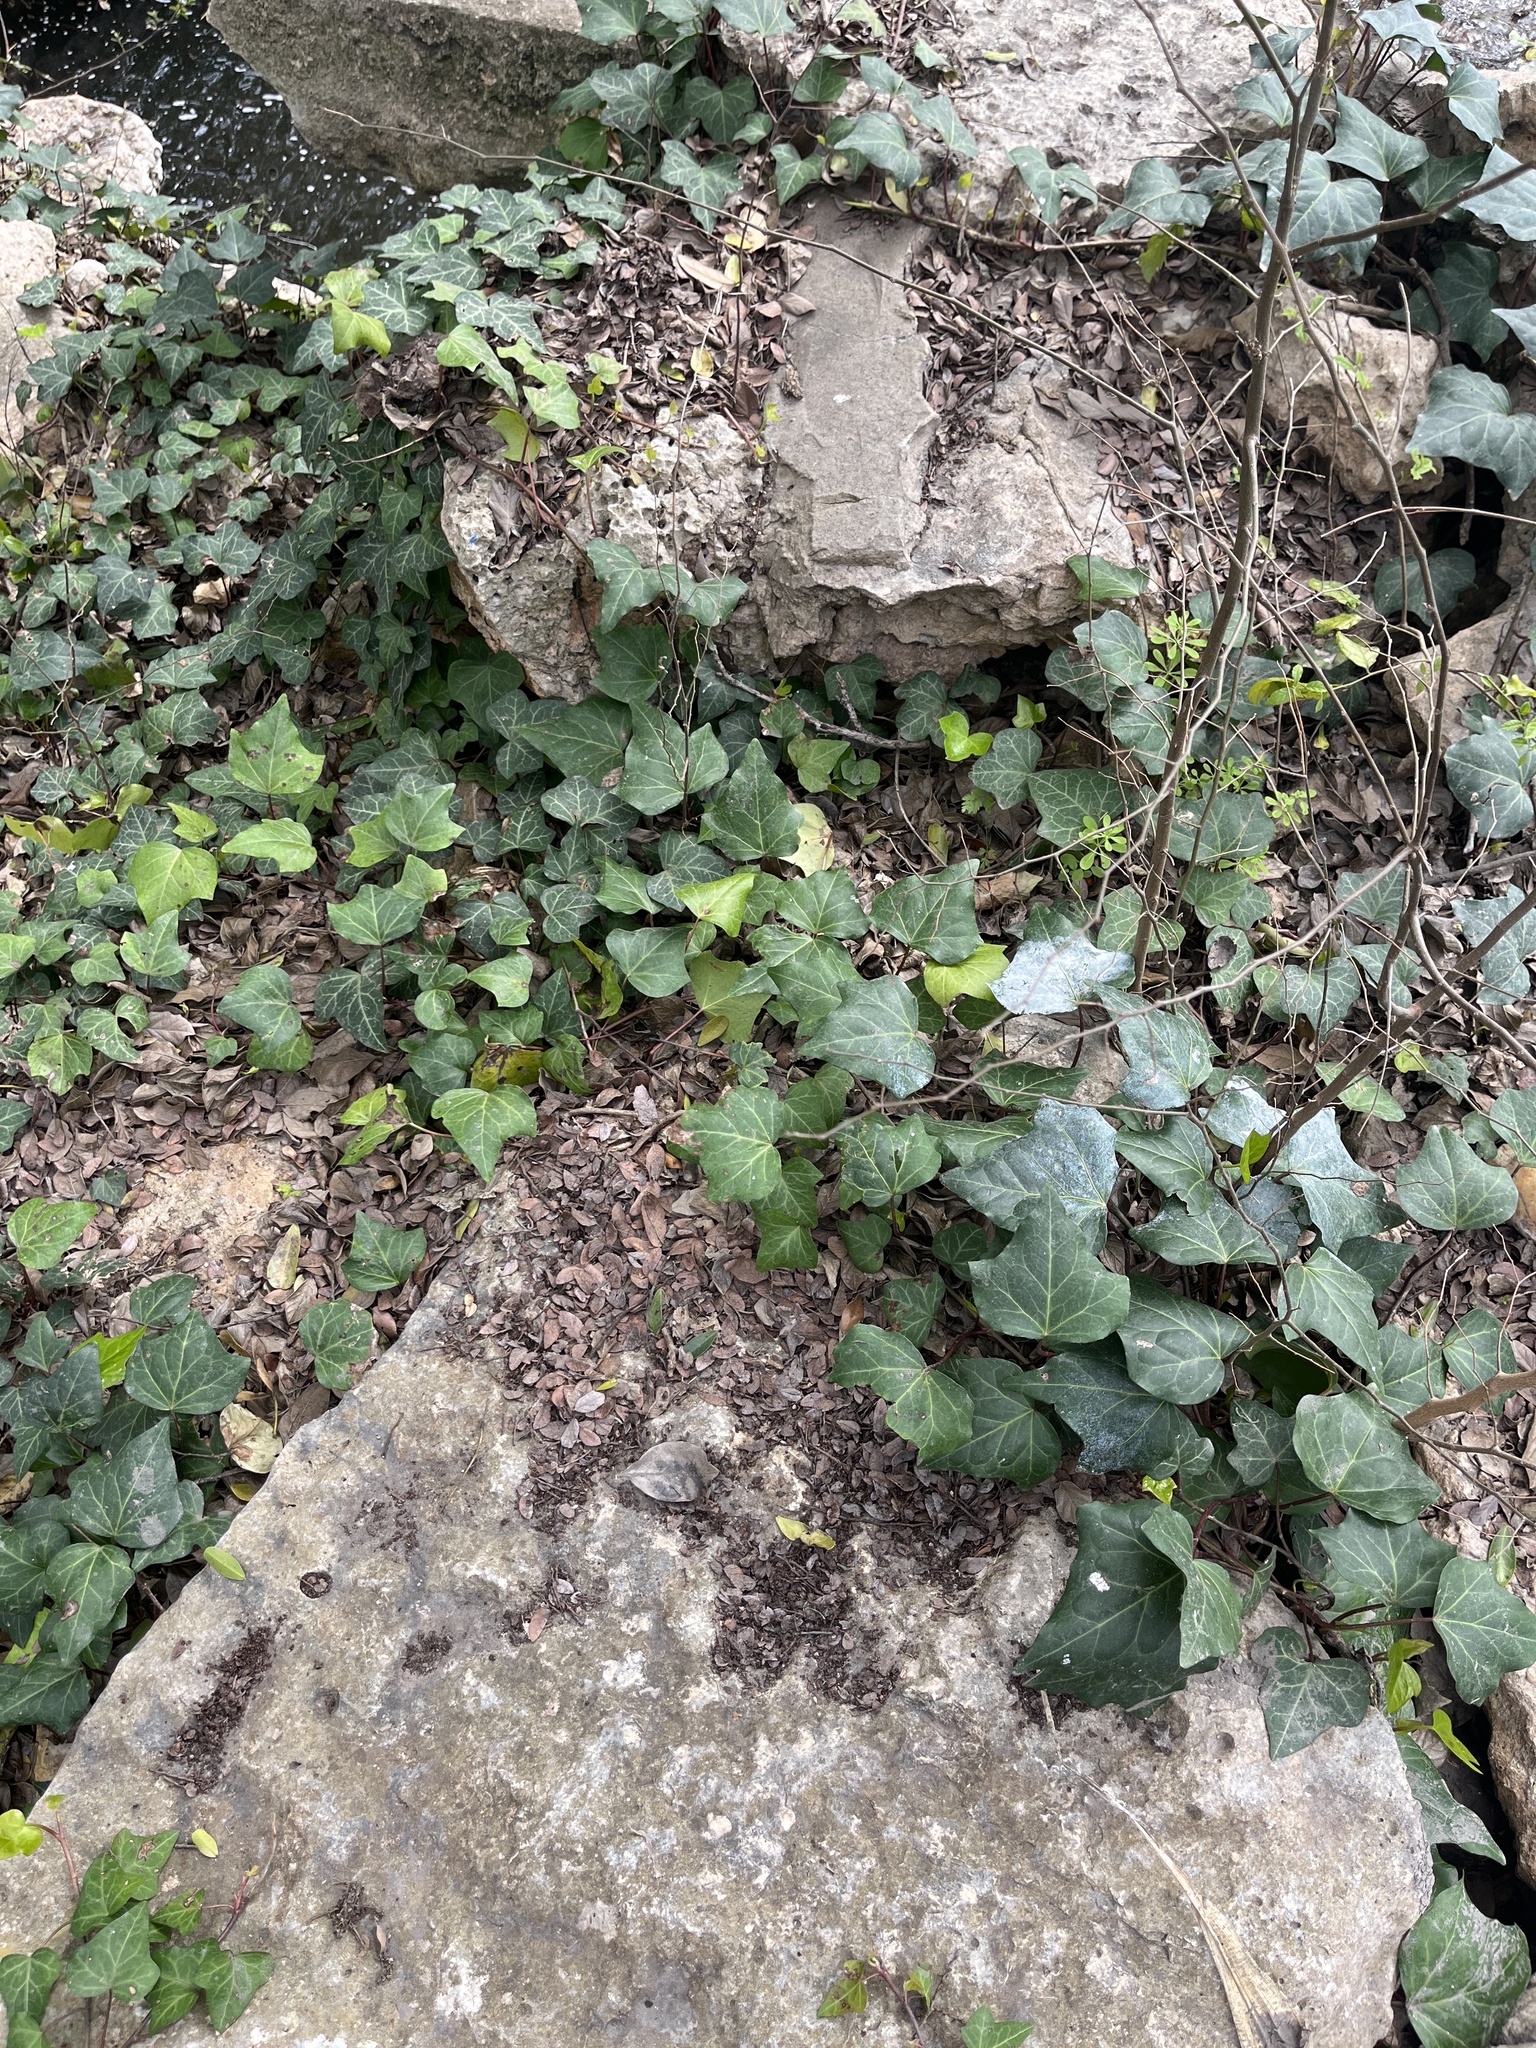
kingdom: Plantae
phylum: Tracheophyta
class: Magnoliopsida
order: Apiales
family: Araliaceae
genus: Hedera
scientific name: Hedera helix
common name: Ivy
